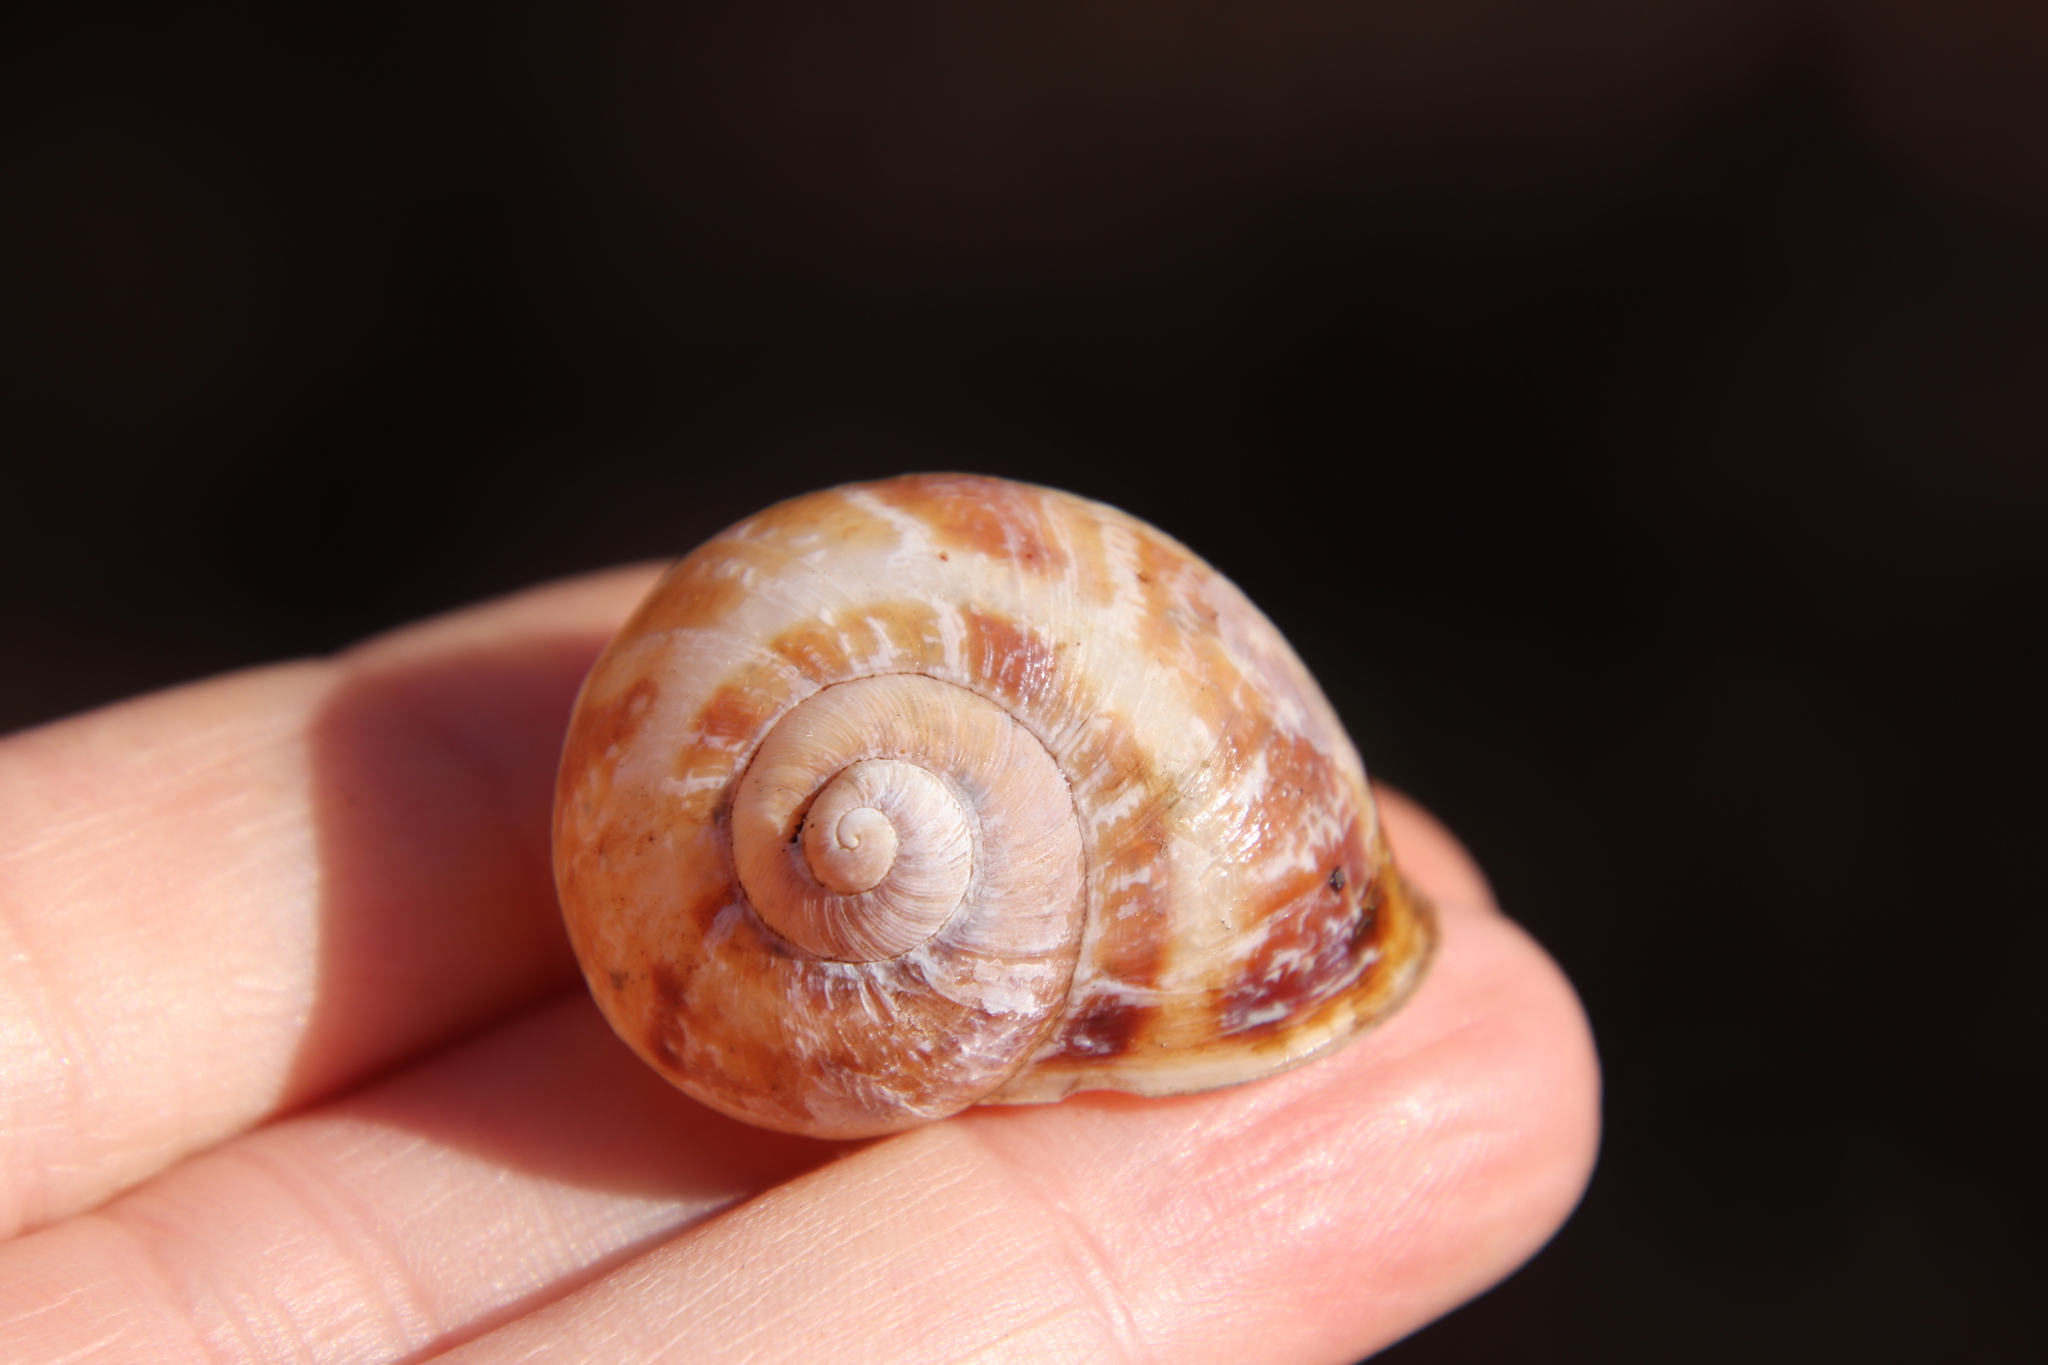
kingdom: Animalia
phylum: Mollusca
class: Gastropoda
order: Stylommatophora
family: Helicidae
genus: Cornu
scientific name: Cornu aspersum
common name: Brown garden snail
